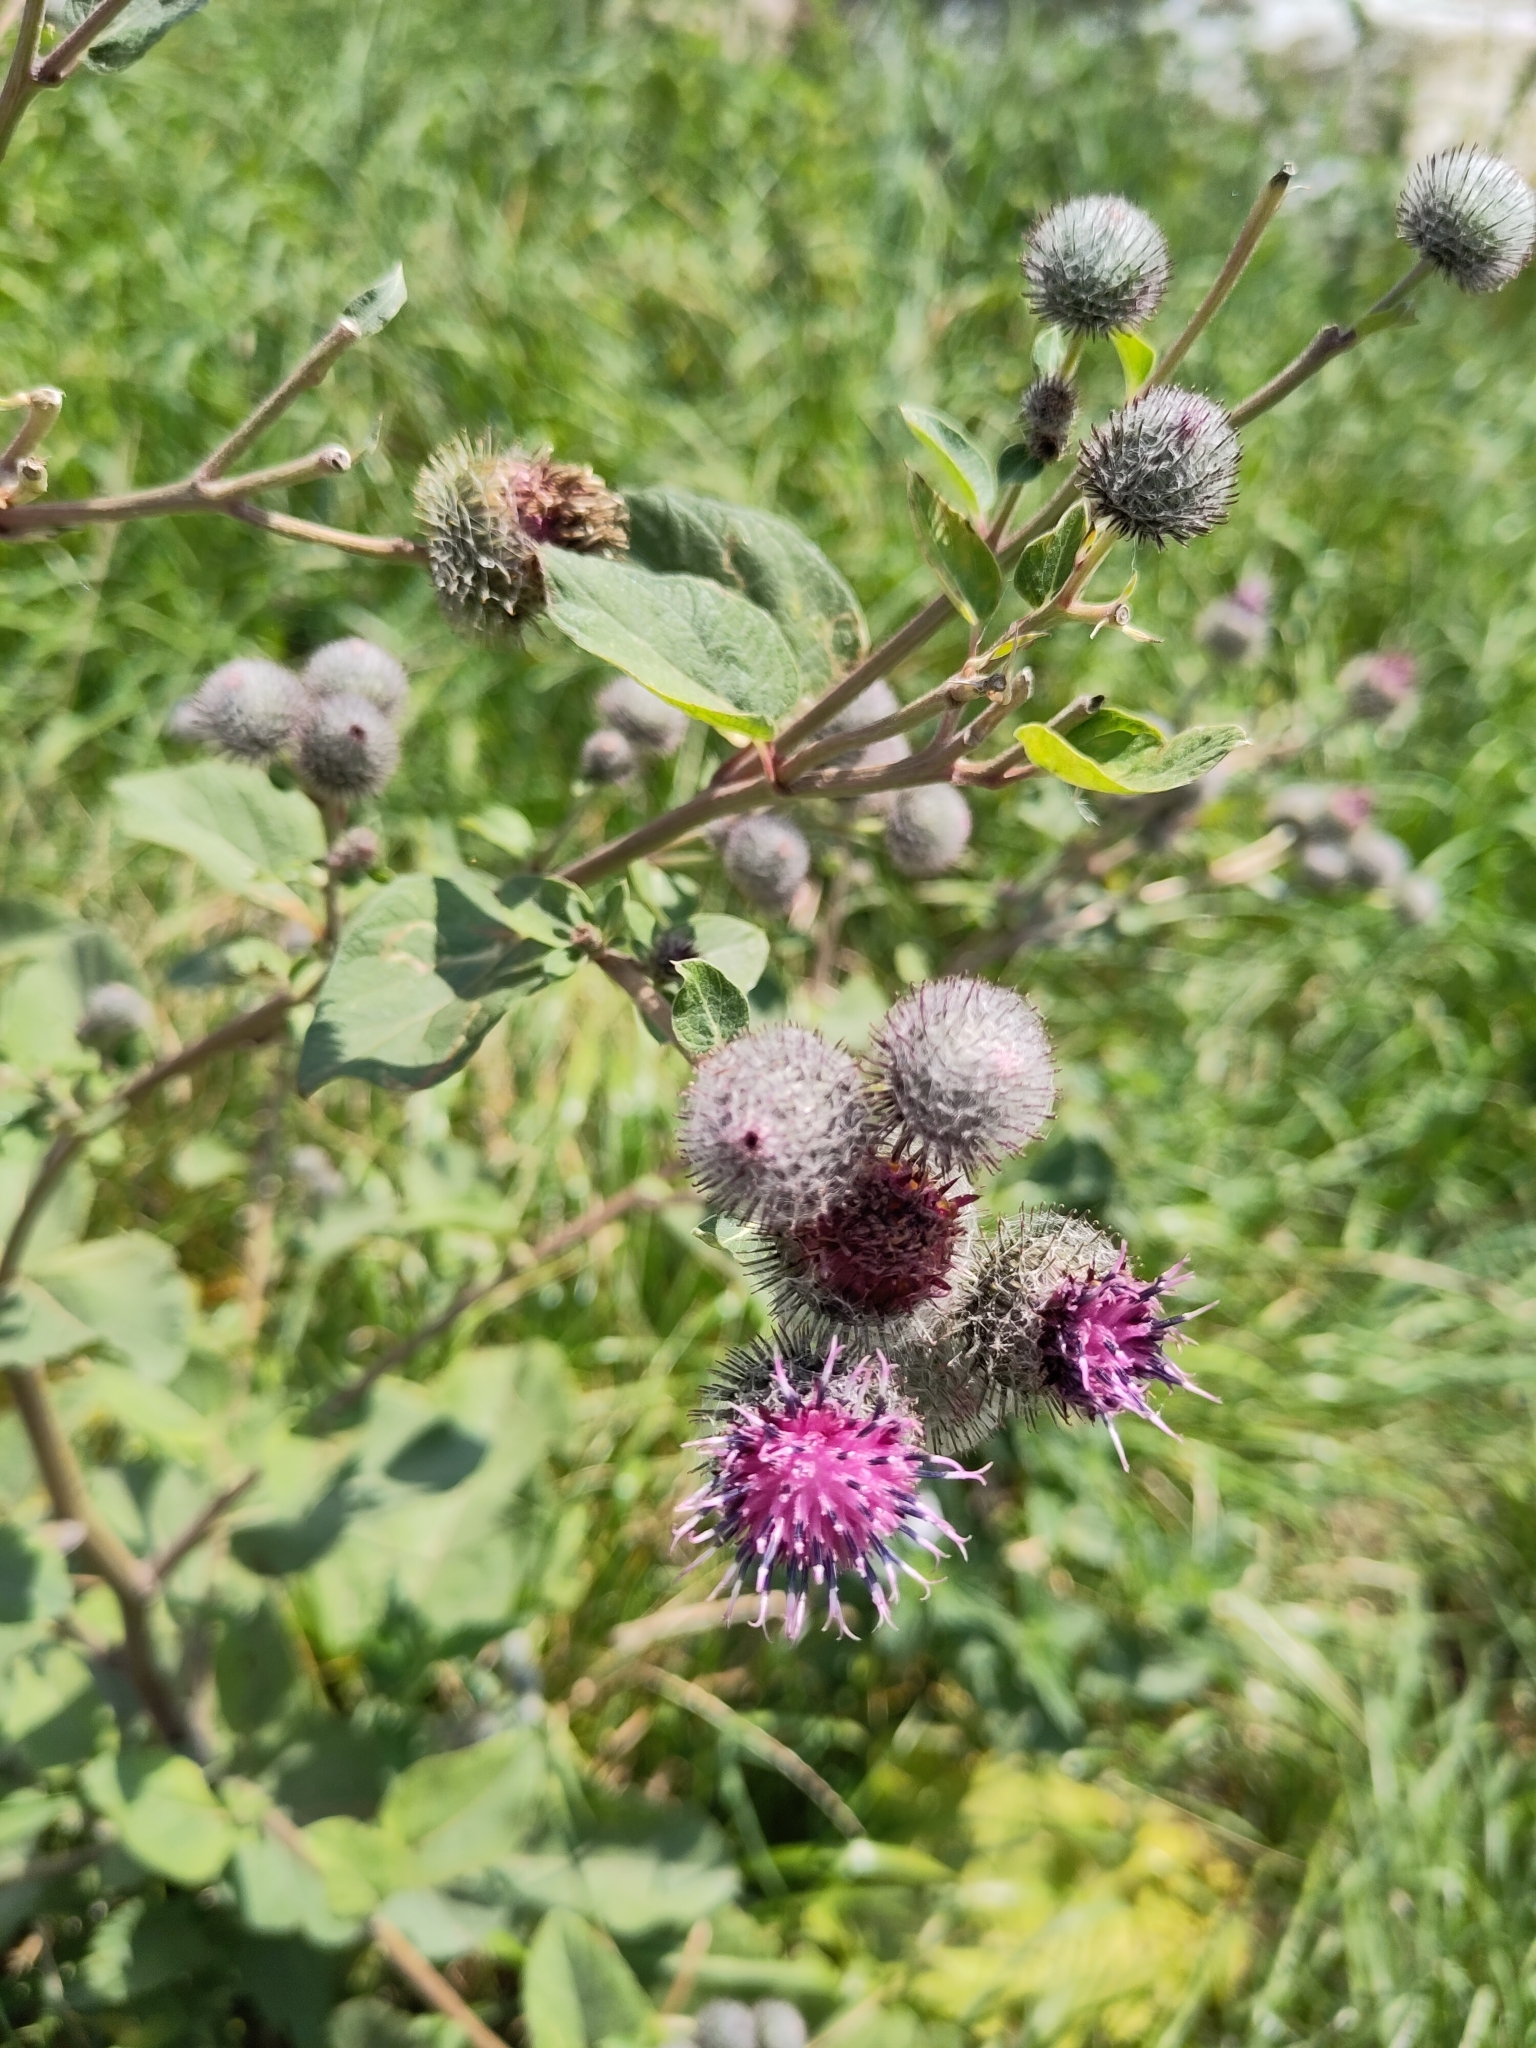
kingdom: Plantae
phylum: Tracheophyta
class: Magnoliopsida
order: Asterales
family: Asteraceae
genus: Arctium
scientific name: Arctium tomentosum
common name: Woolly burdock
